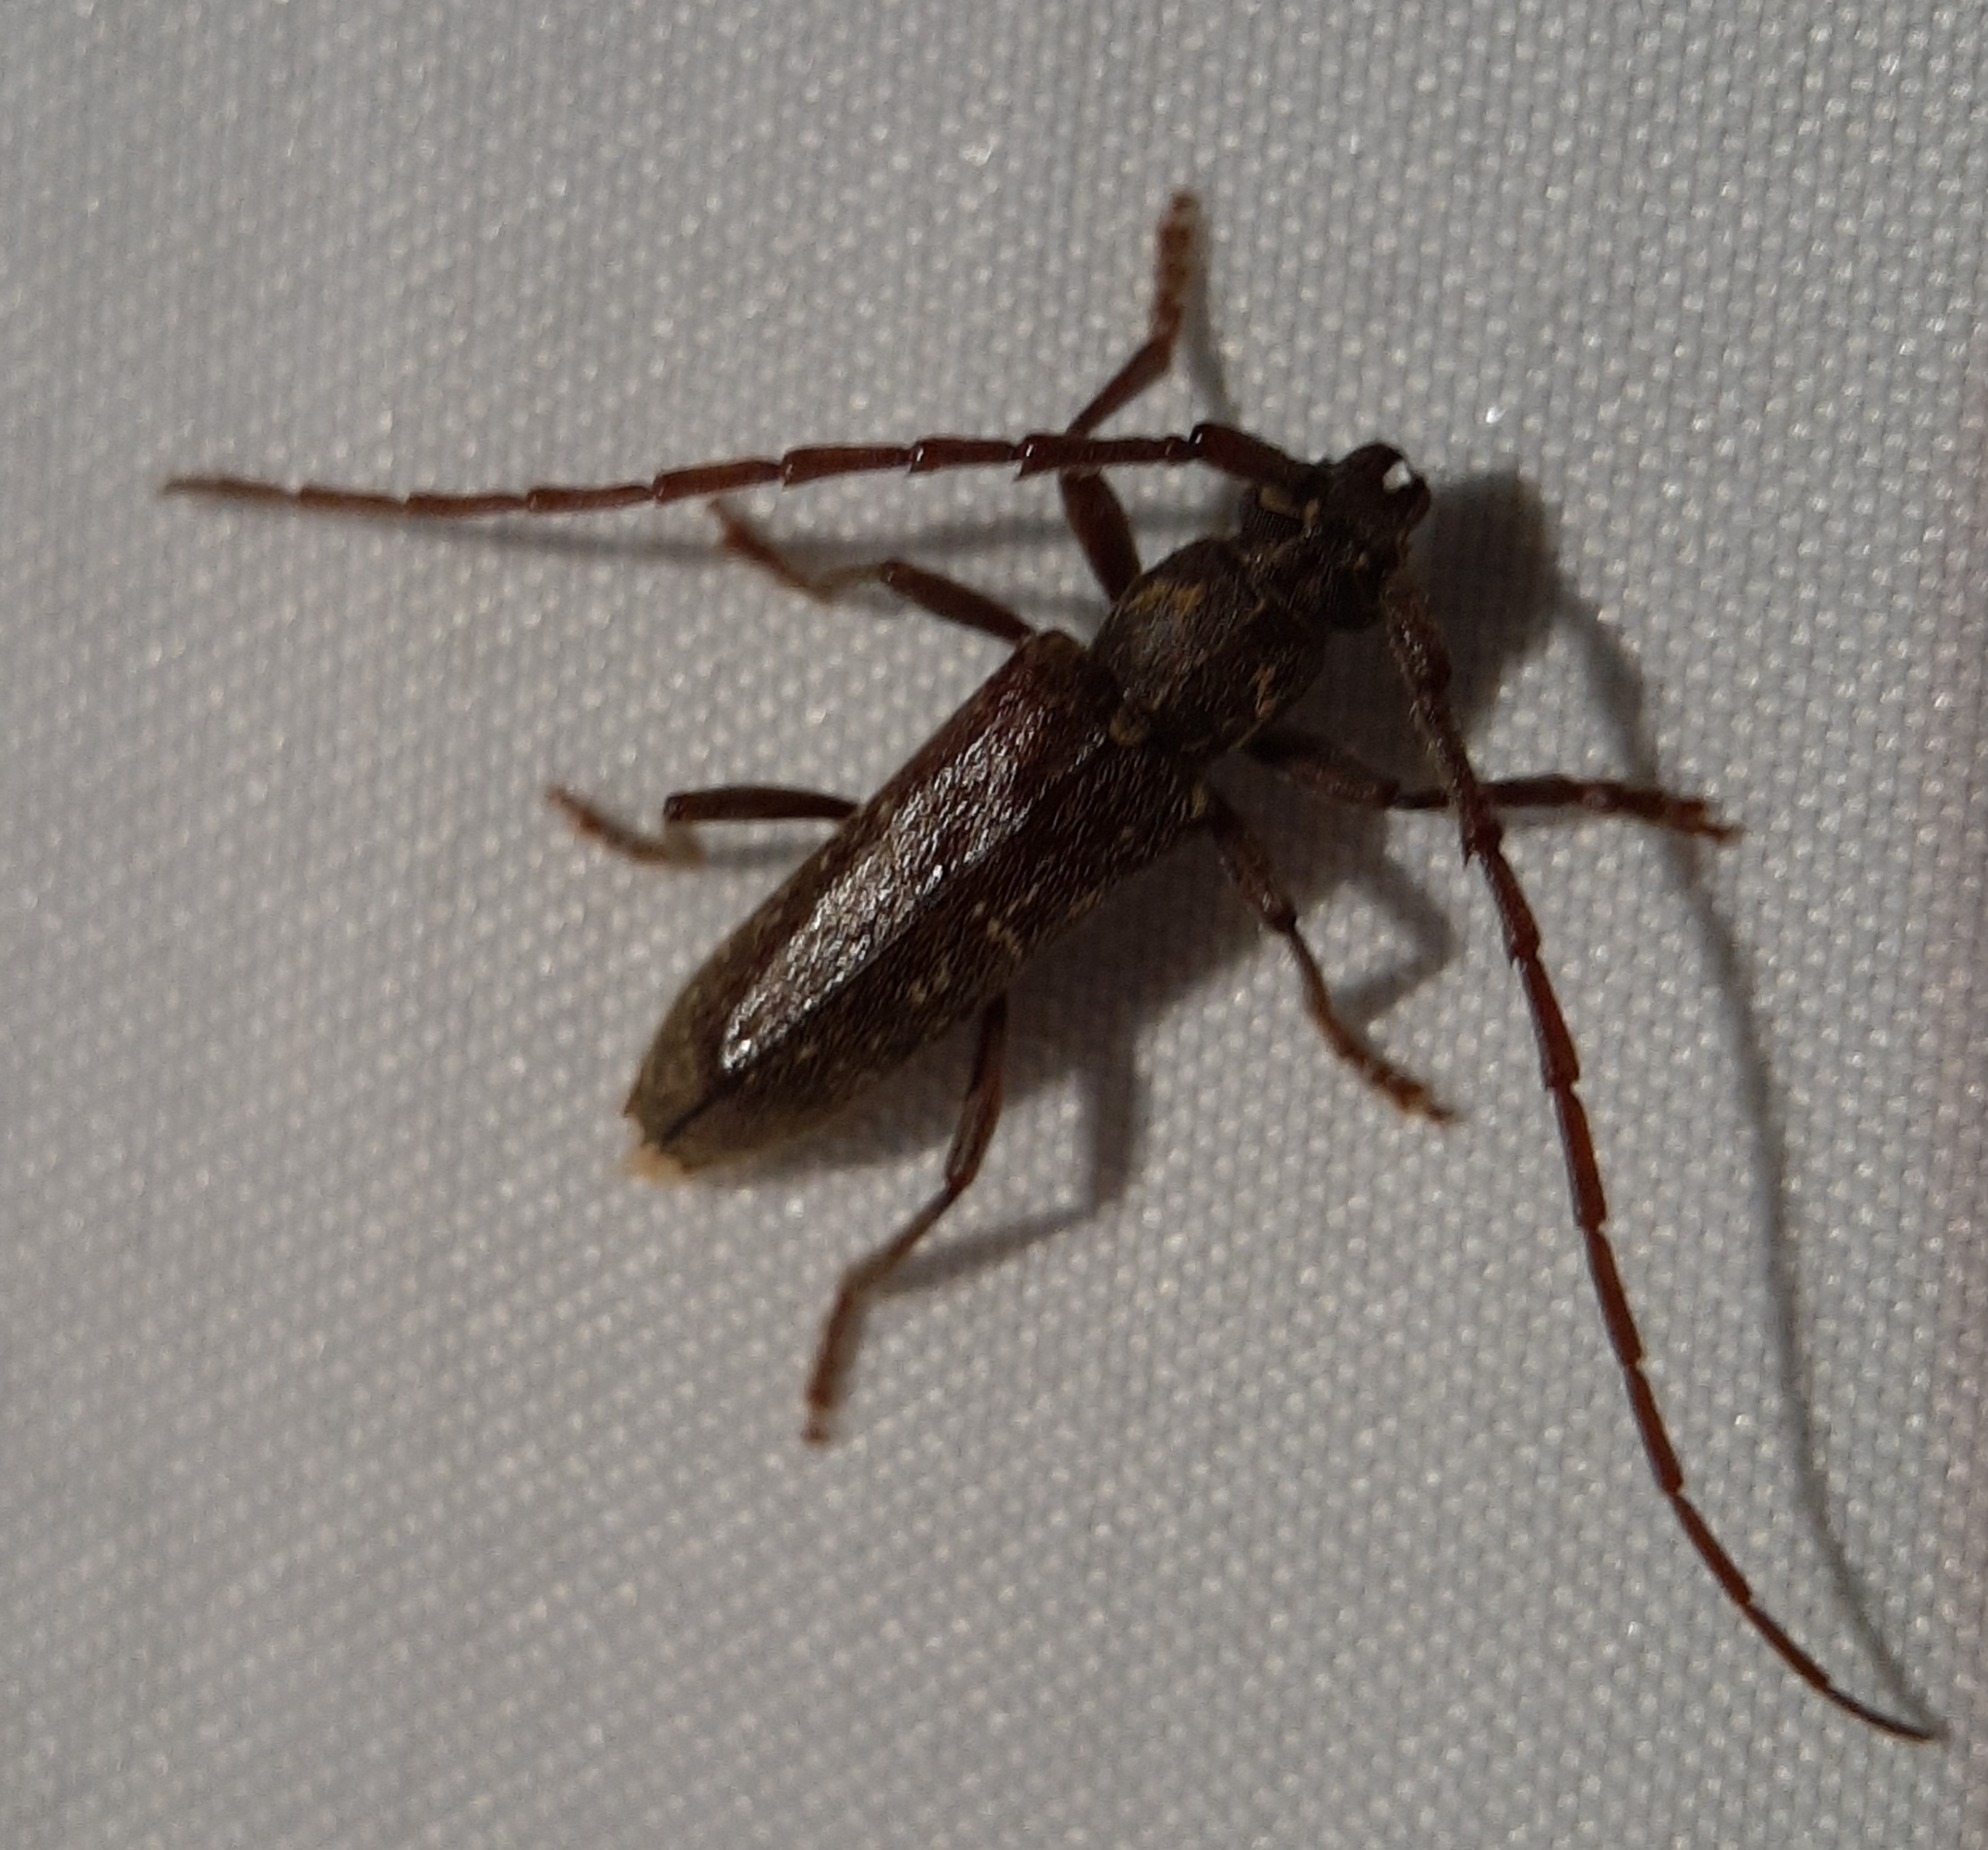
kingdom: Animalia
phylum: Arthropoda
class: Insecta
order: Coleoptera
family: Cerambycidae
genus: Anelaphus
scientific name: Anelaphus villosus
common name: Twig pruner
